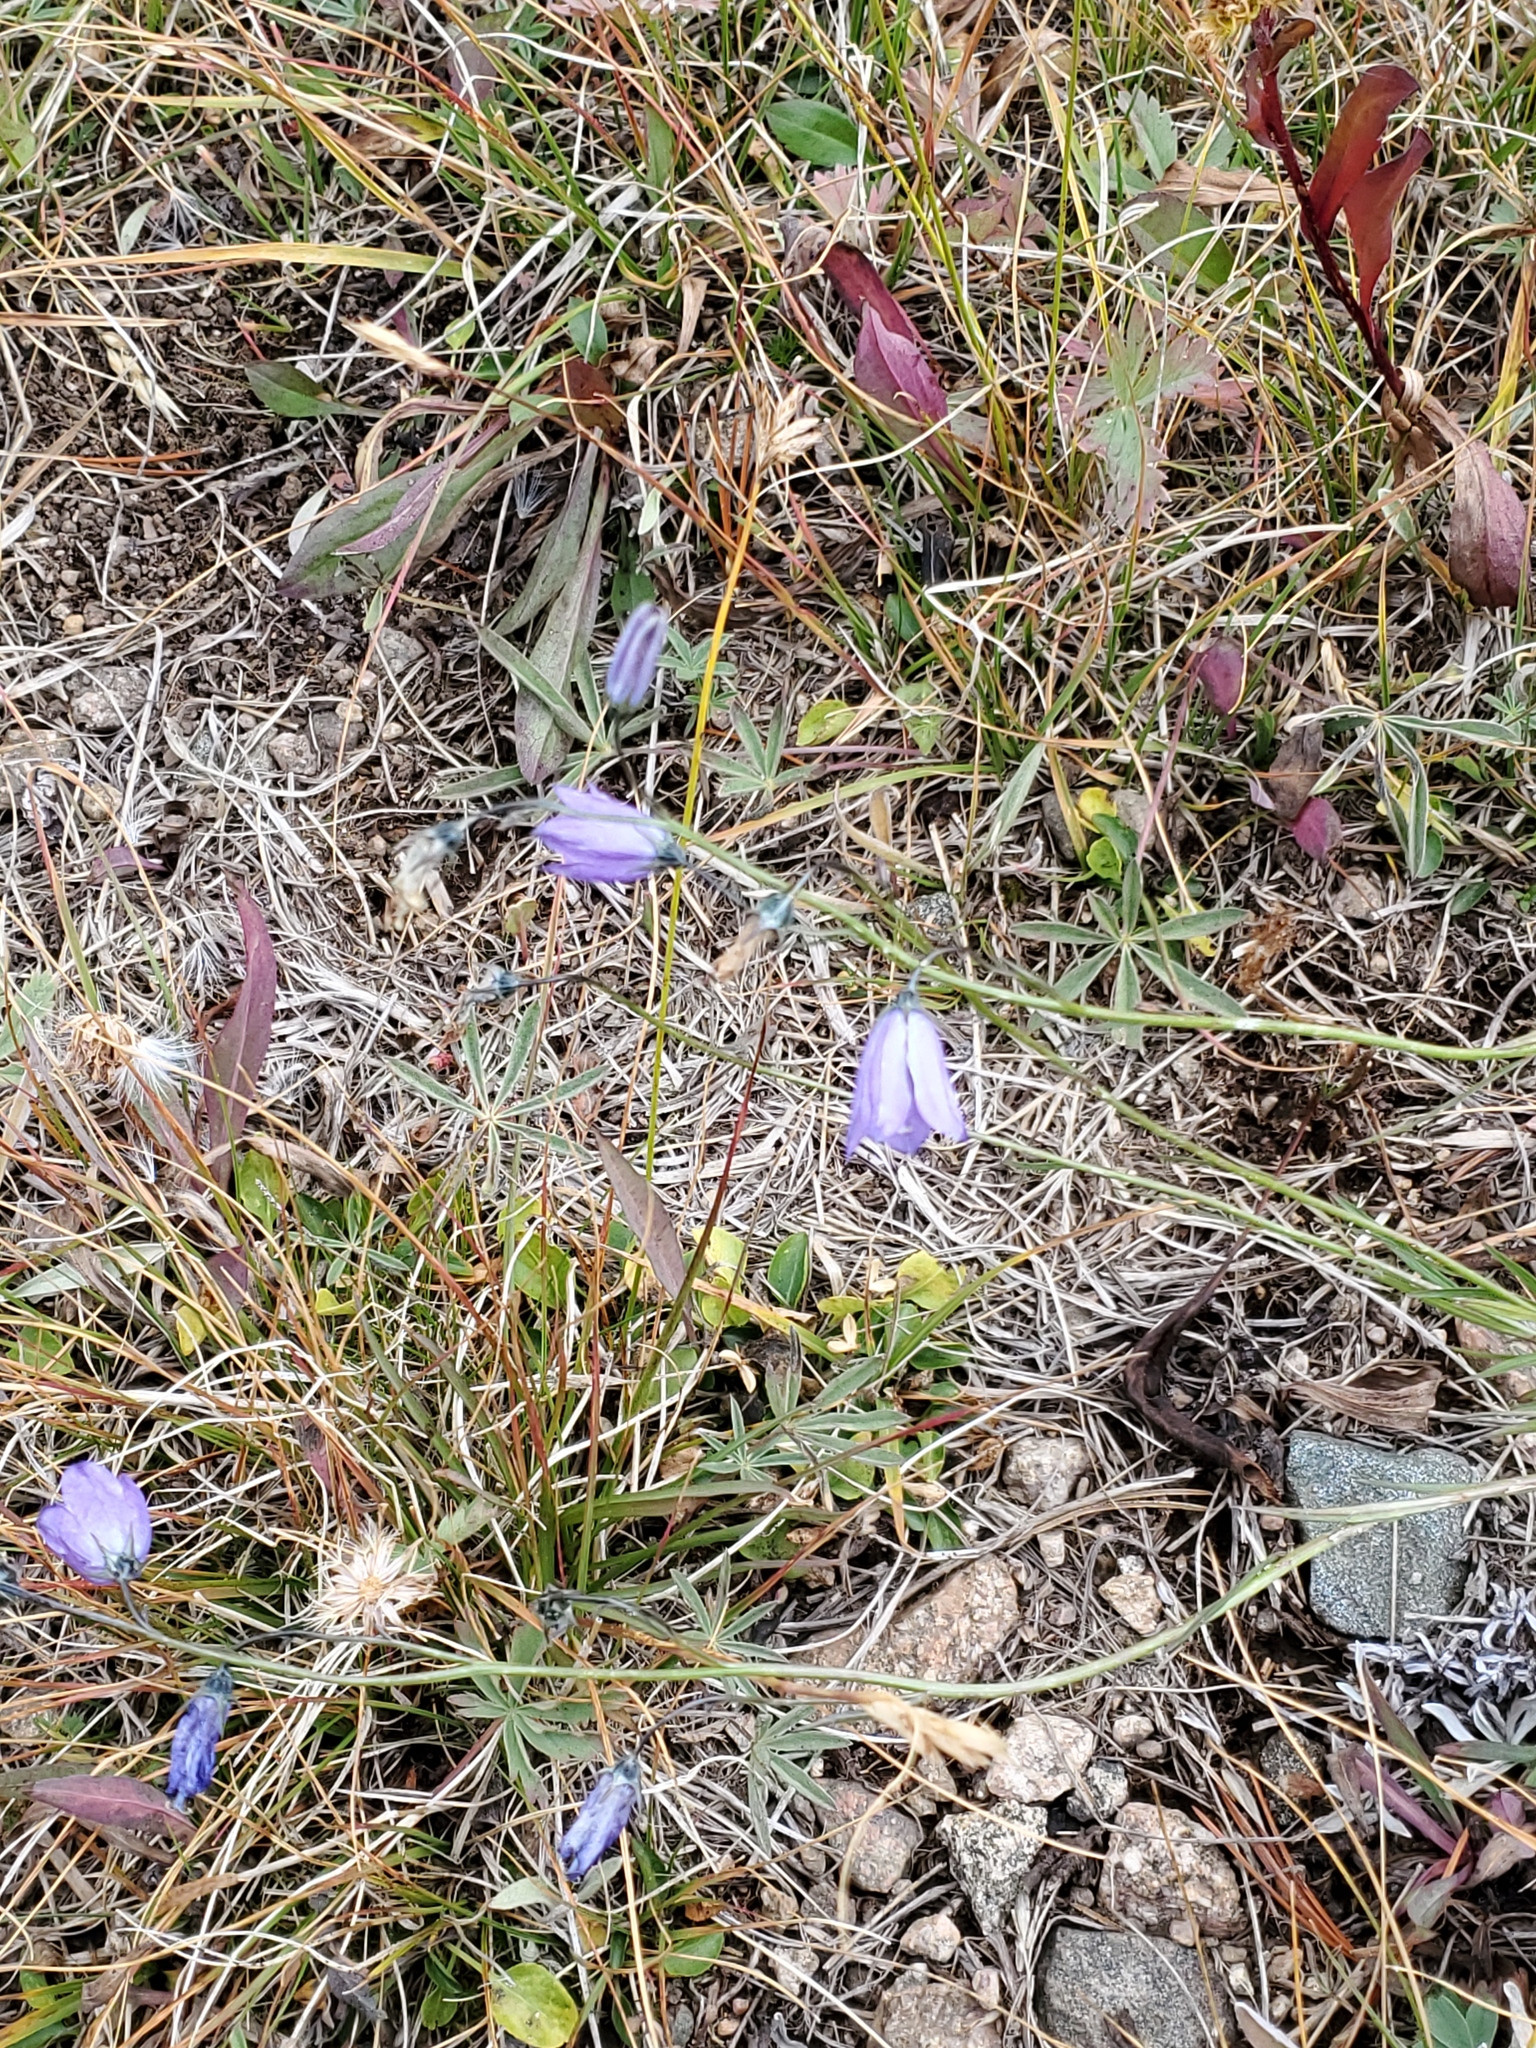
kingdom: Plantae
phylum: Tracheophyta
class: Magnoliopsida
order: Asterales
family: Campanulaceae
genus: Campanula
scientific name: Campanula petiolata
